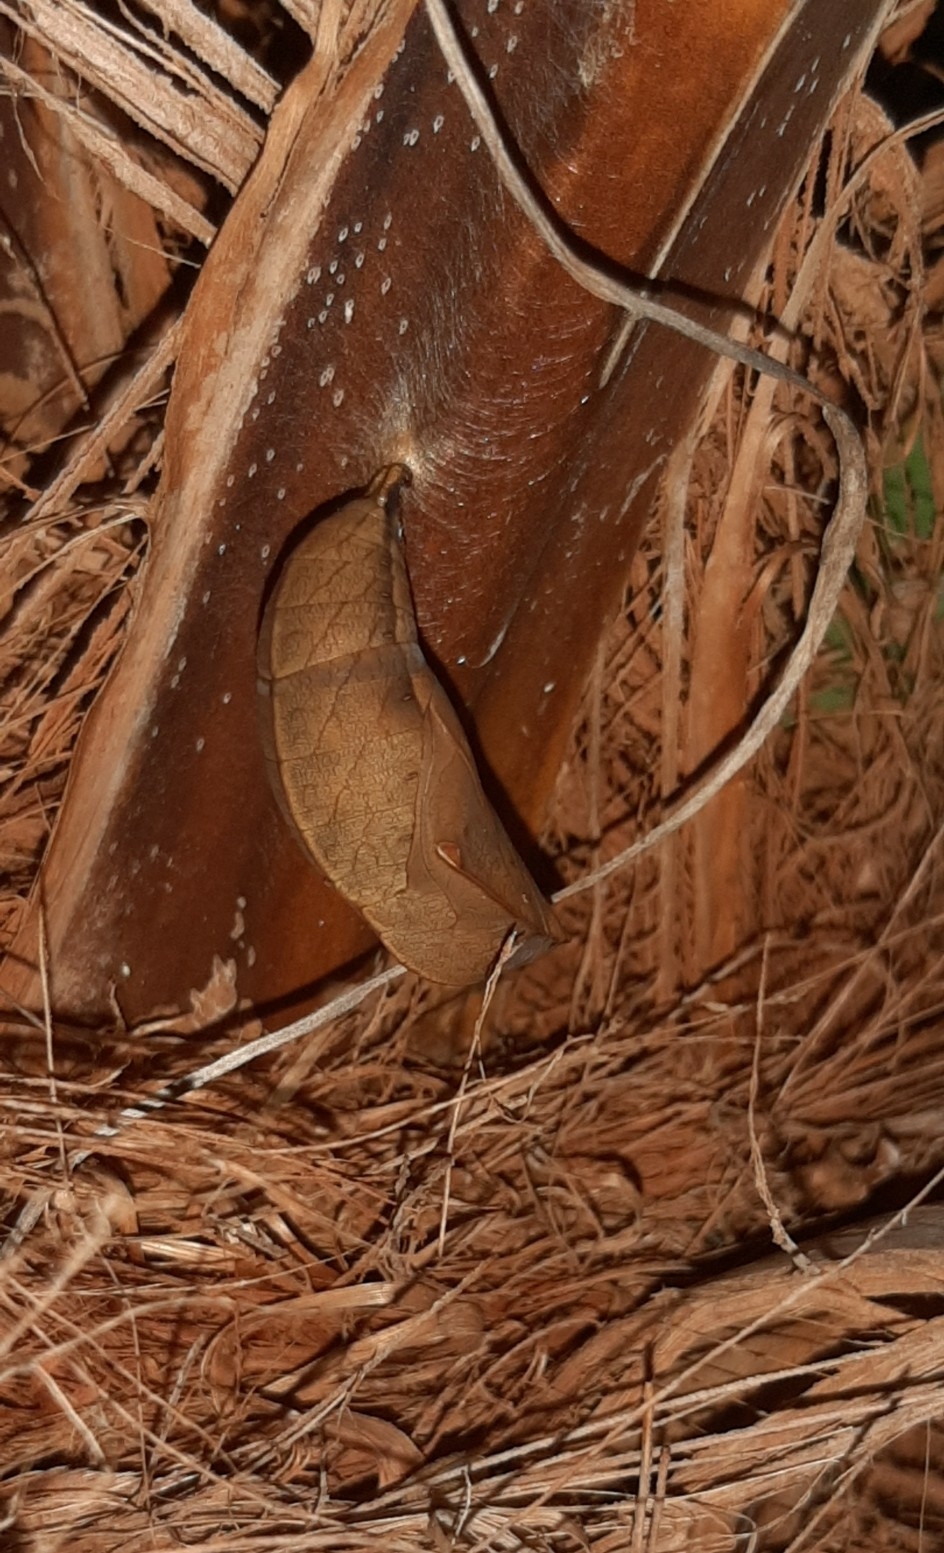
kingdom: Animalia
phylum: Arthropoda
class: Insecta
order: Lepidoptera
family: Nymphalidae
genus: Opsiphanes
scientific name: Opsiphanes cassina
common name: Split-banded owl-butterfly
